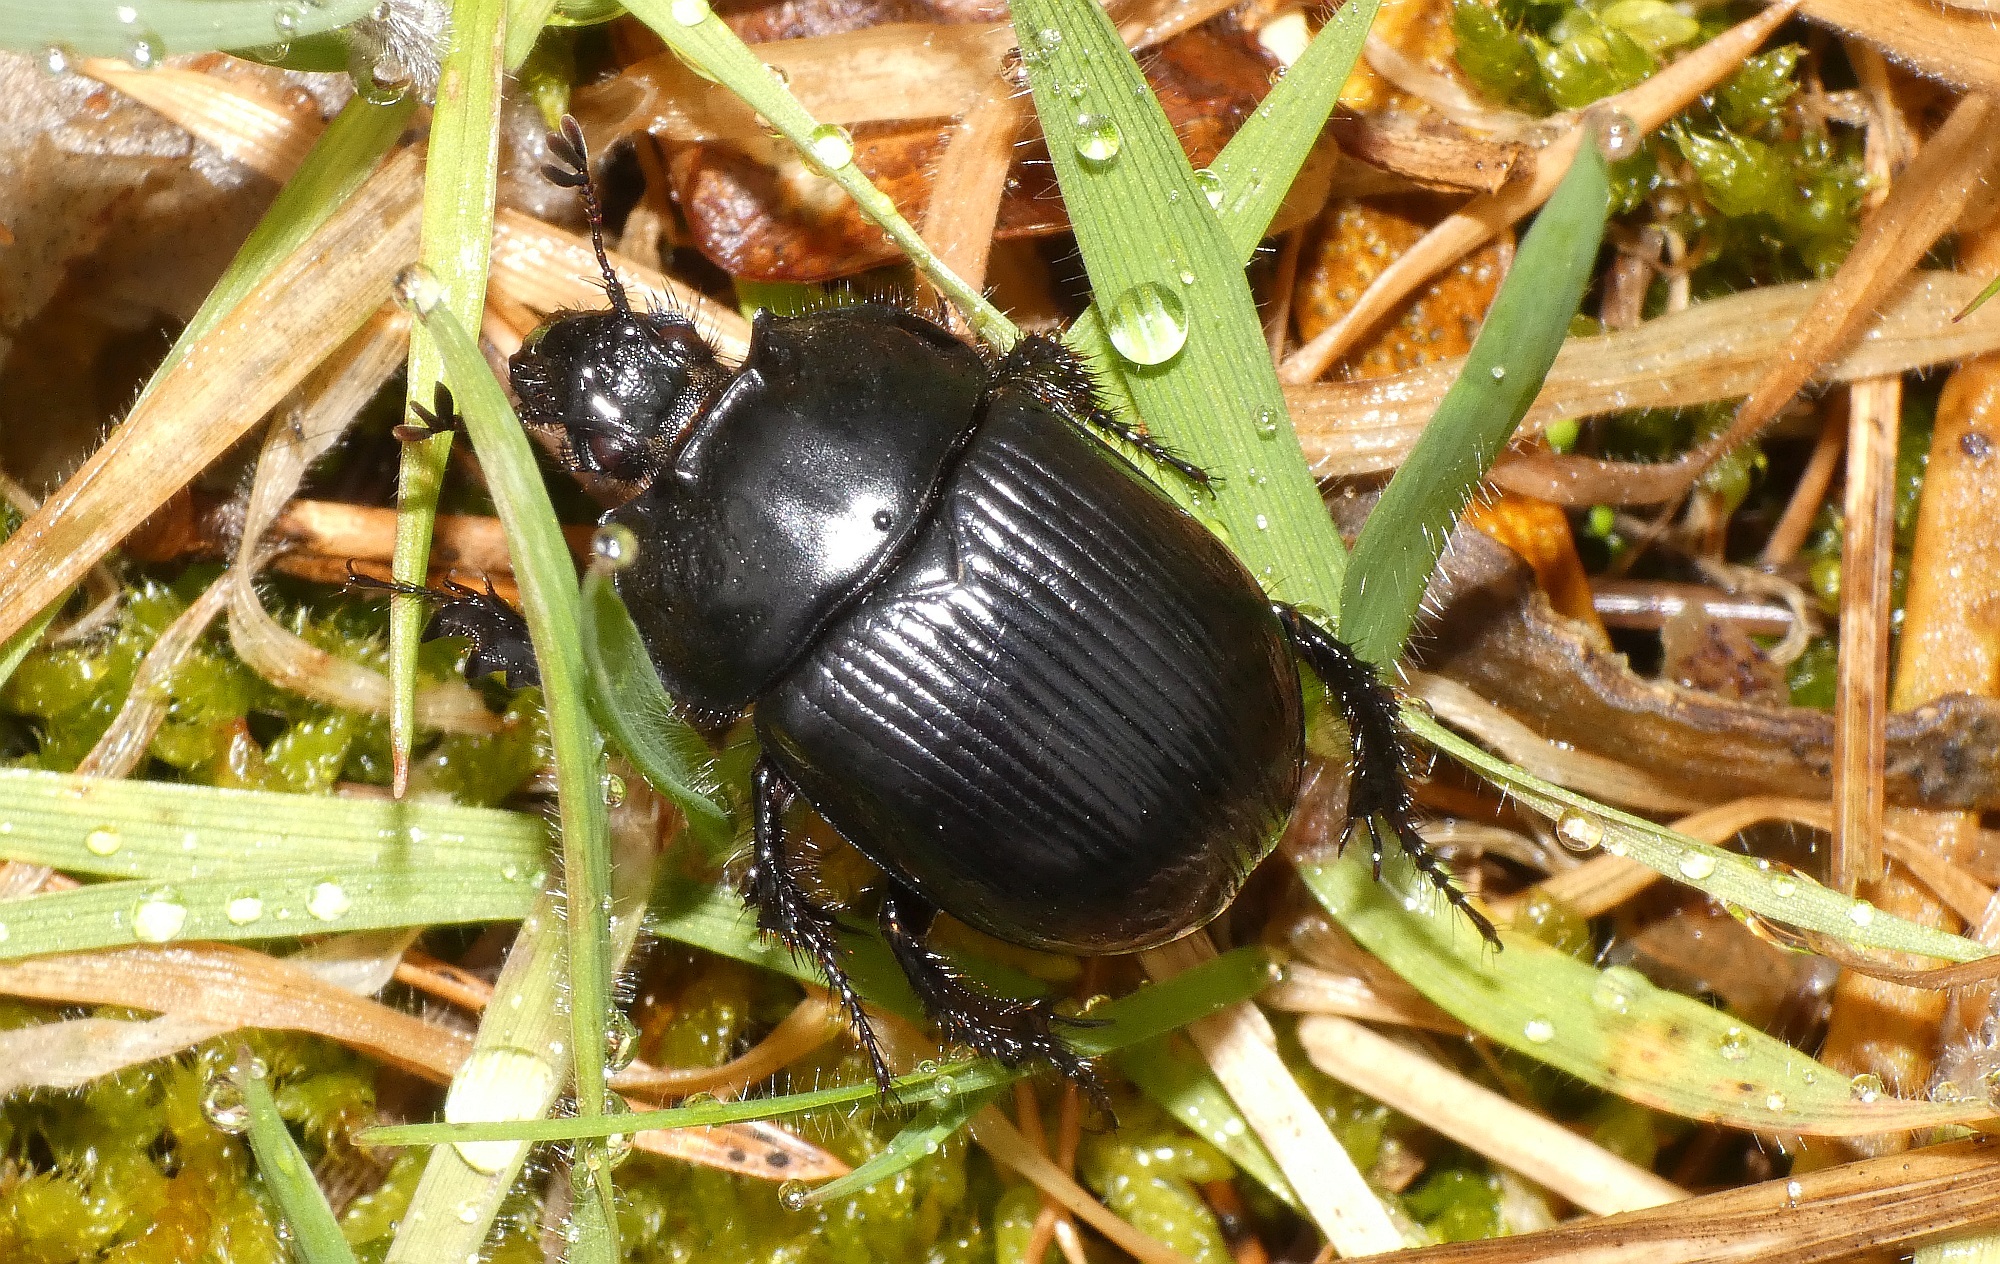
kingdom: Animalia
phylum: Arthropoda
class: Insecta
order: Coleoptera
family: Geotrupidae
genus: Typhaeus
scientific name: Typhaeus typhoeus
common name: Minotaur beetle
